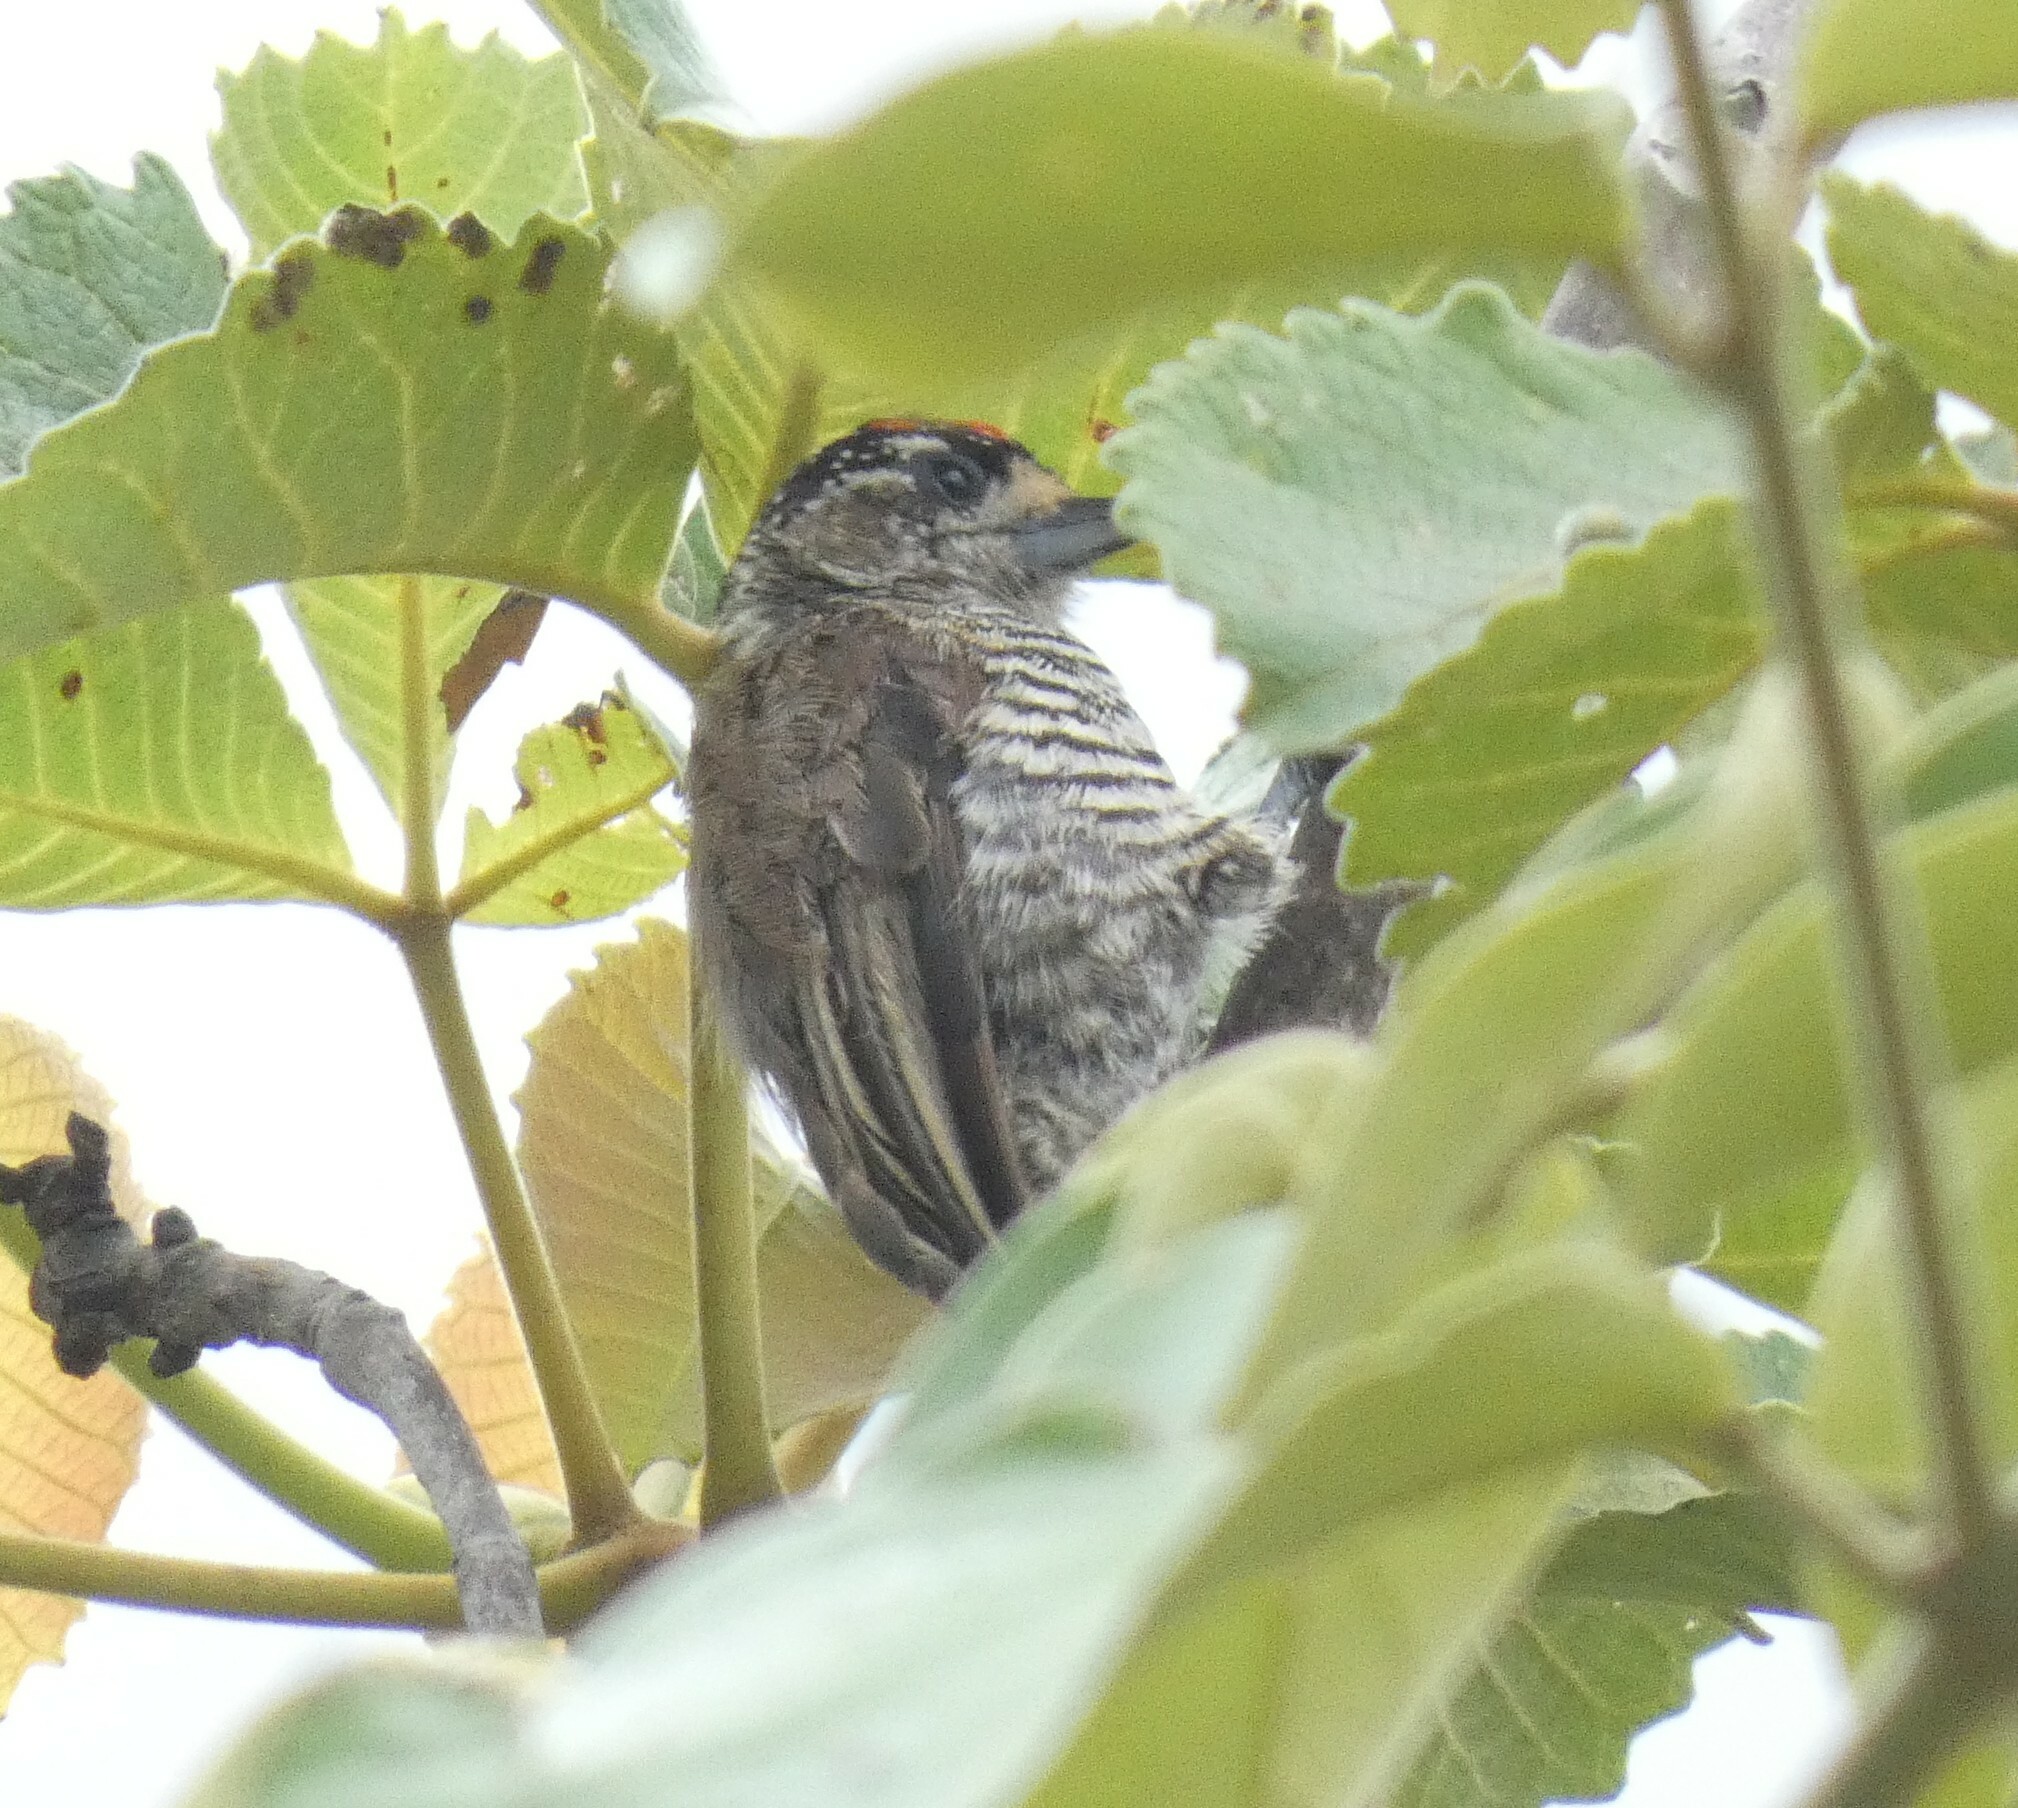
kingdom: Animalia
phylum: Chordata
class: Aves
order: Piciformes
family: Picidae
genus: Picumnus
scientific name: Picumnus cirratus
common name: White-barred piculet
